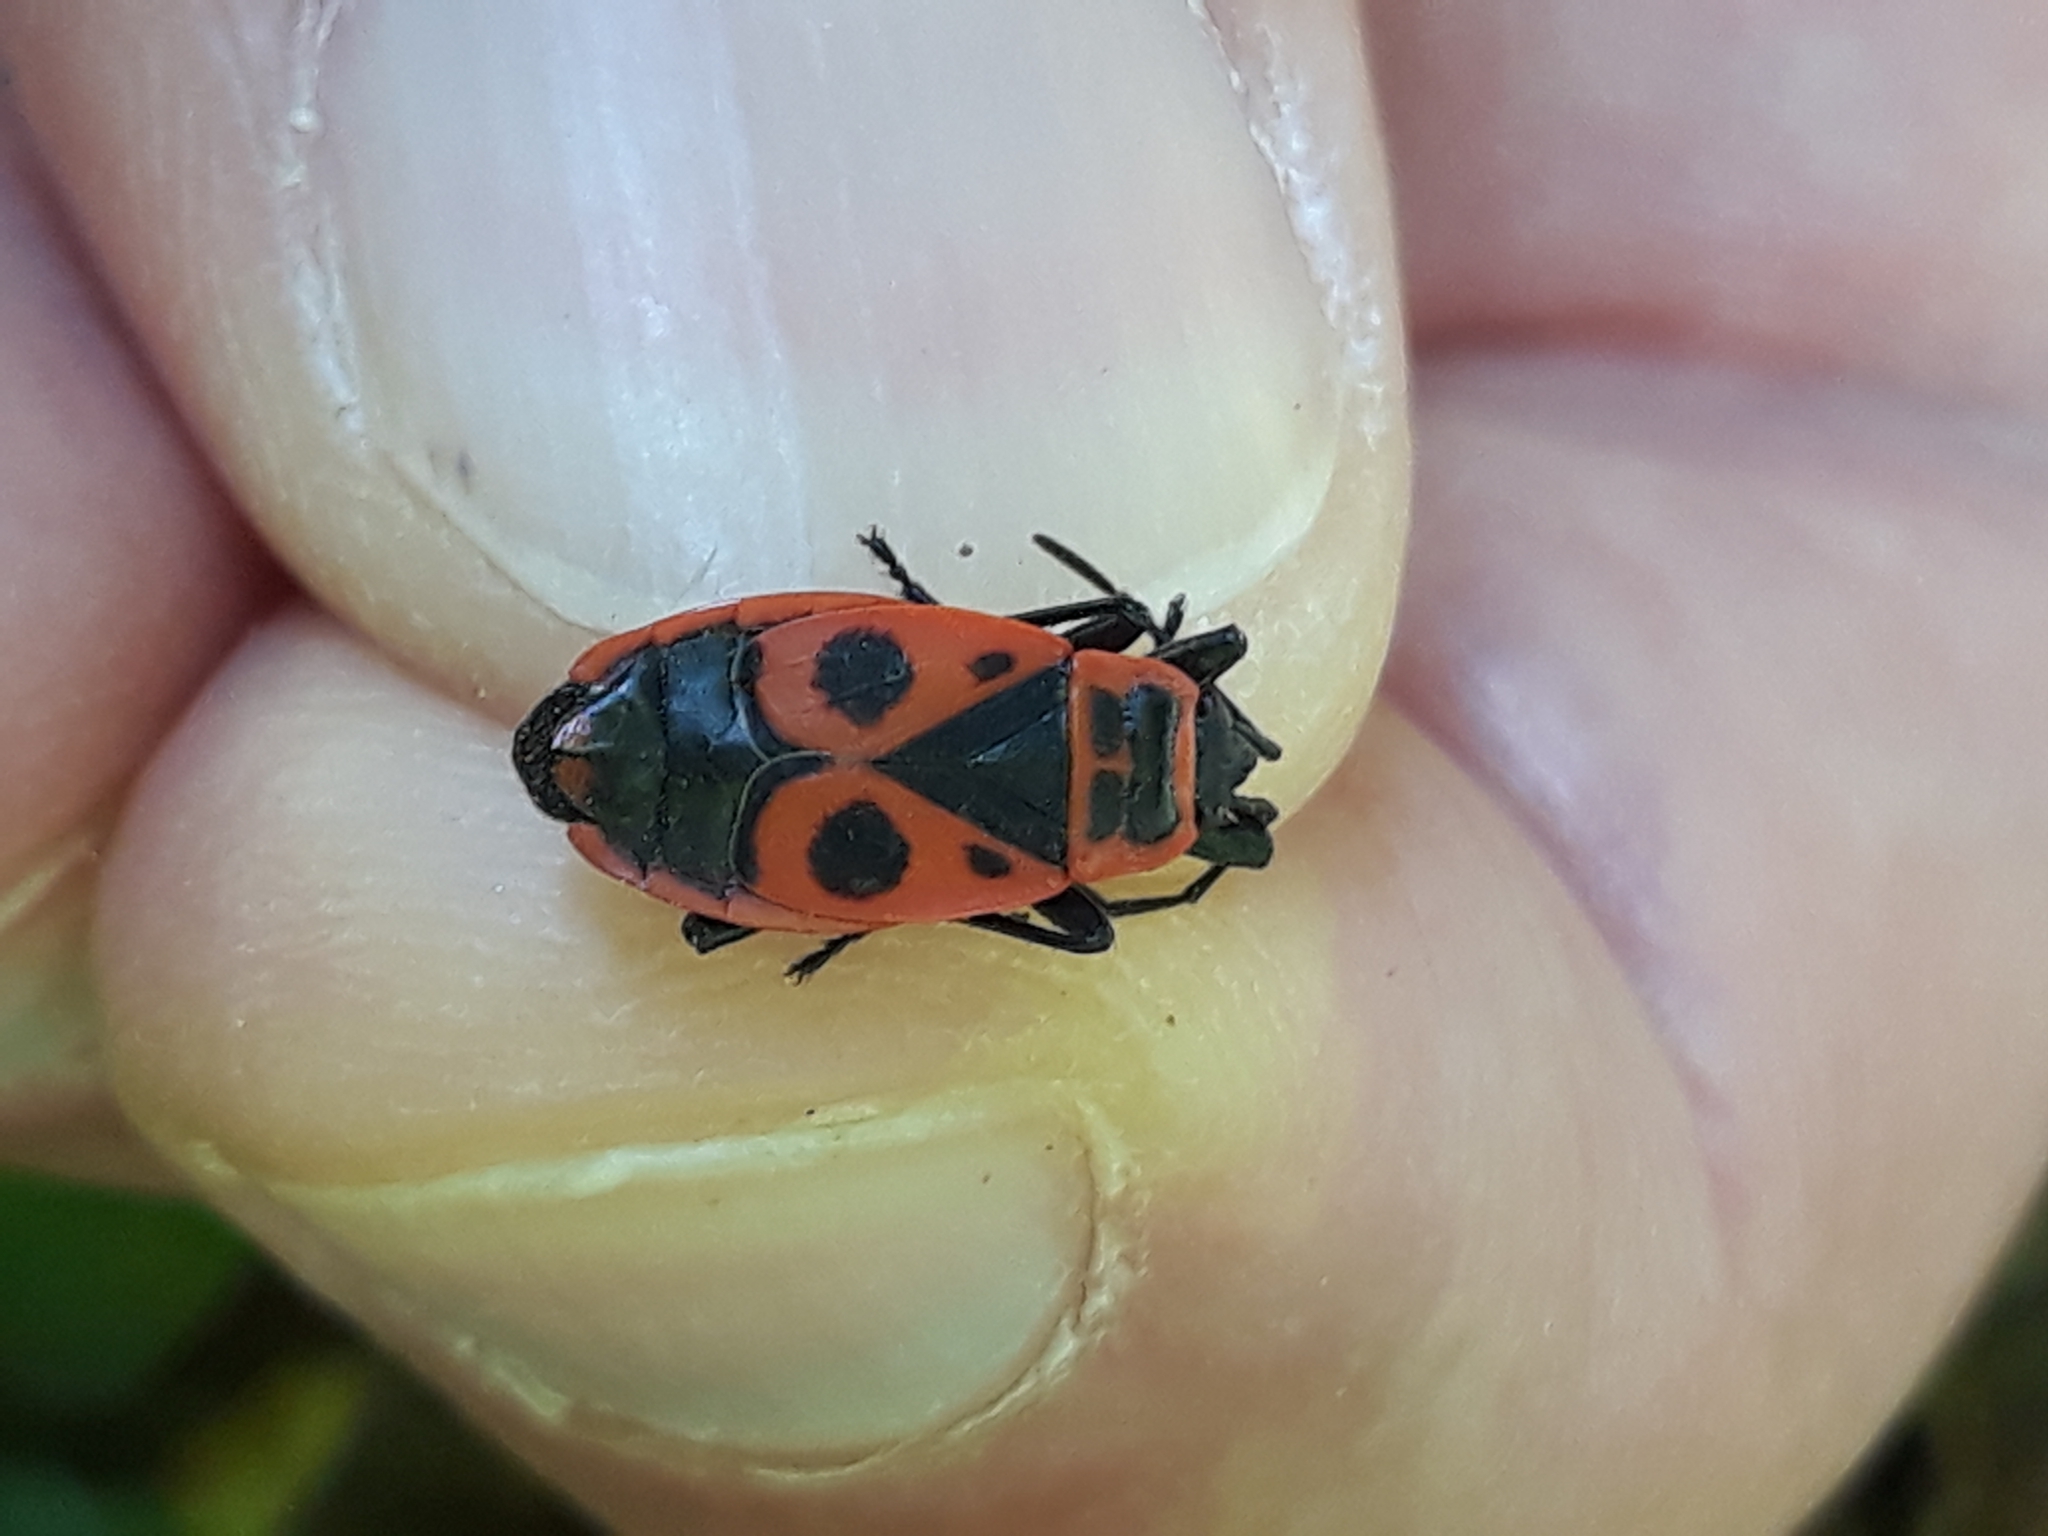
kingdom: Animalia
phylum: Arthropoda
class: Insecta
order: Hemiptera
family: Pyrrhocoridae
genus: Pyrrhocoris
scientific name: Pyrrhocoris apterus
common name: Firebug
